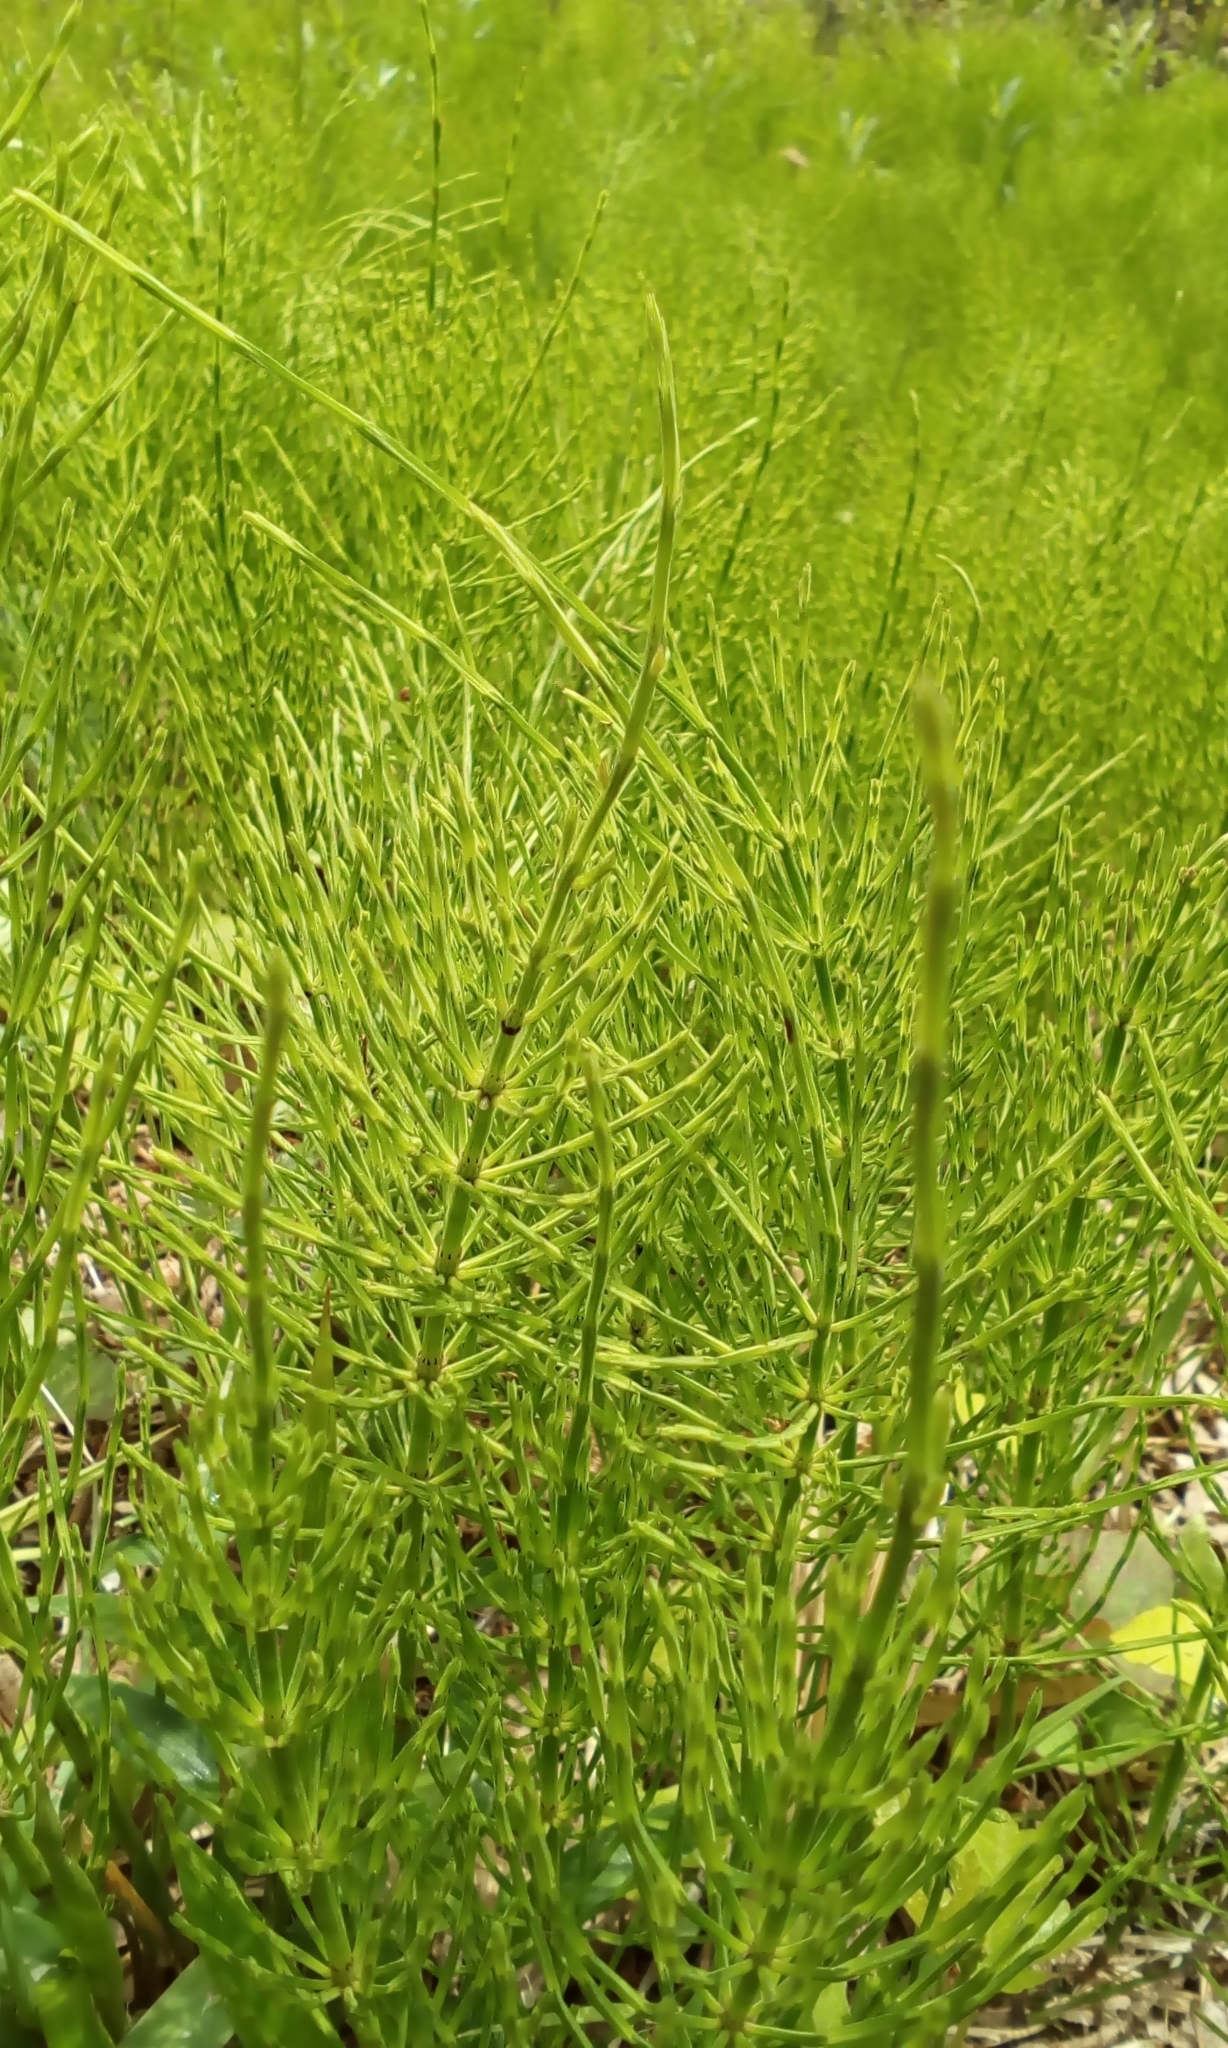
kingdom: Plantae
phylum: Tracheophyta
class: Polypodiopsida
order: Equisetales
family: Equisetaceae
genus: Equisetum
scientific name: Equisetum arvense
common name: Field horsetail
